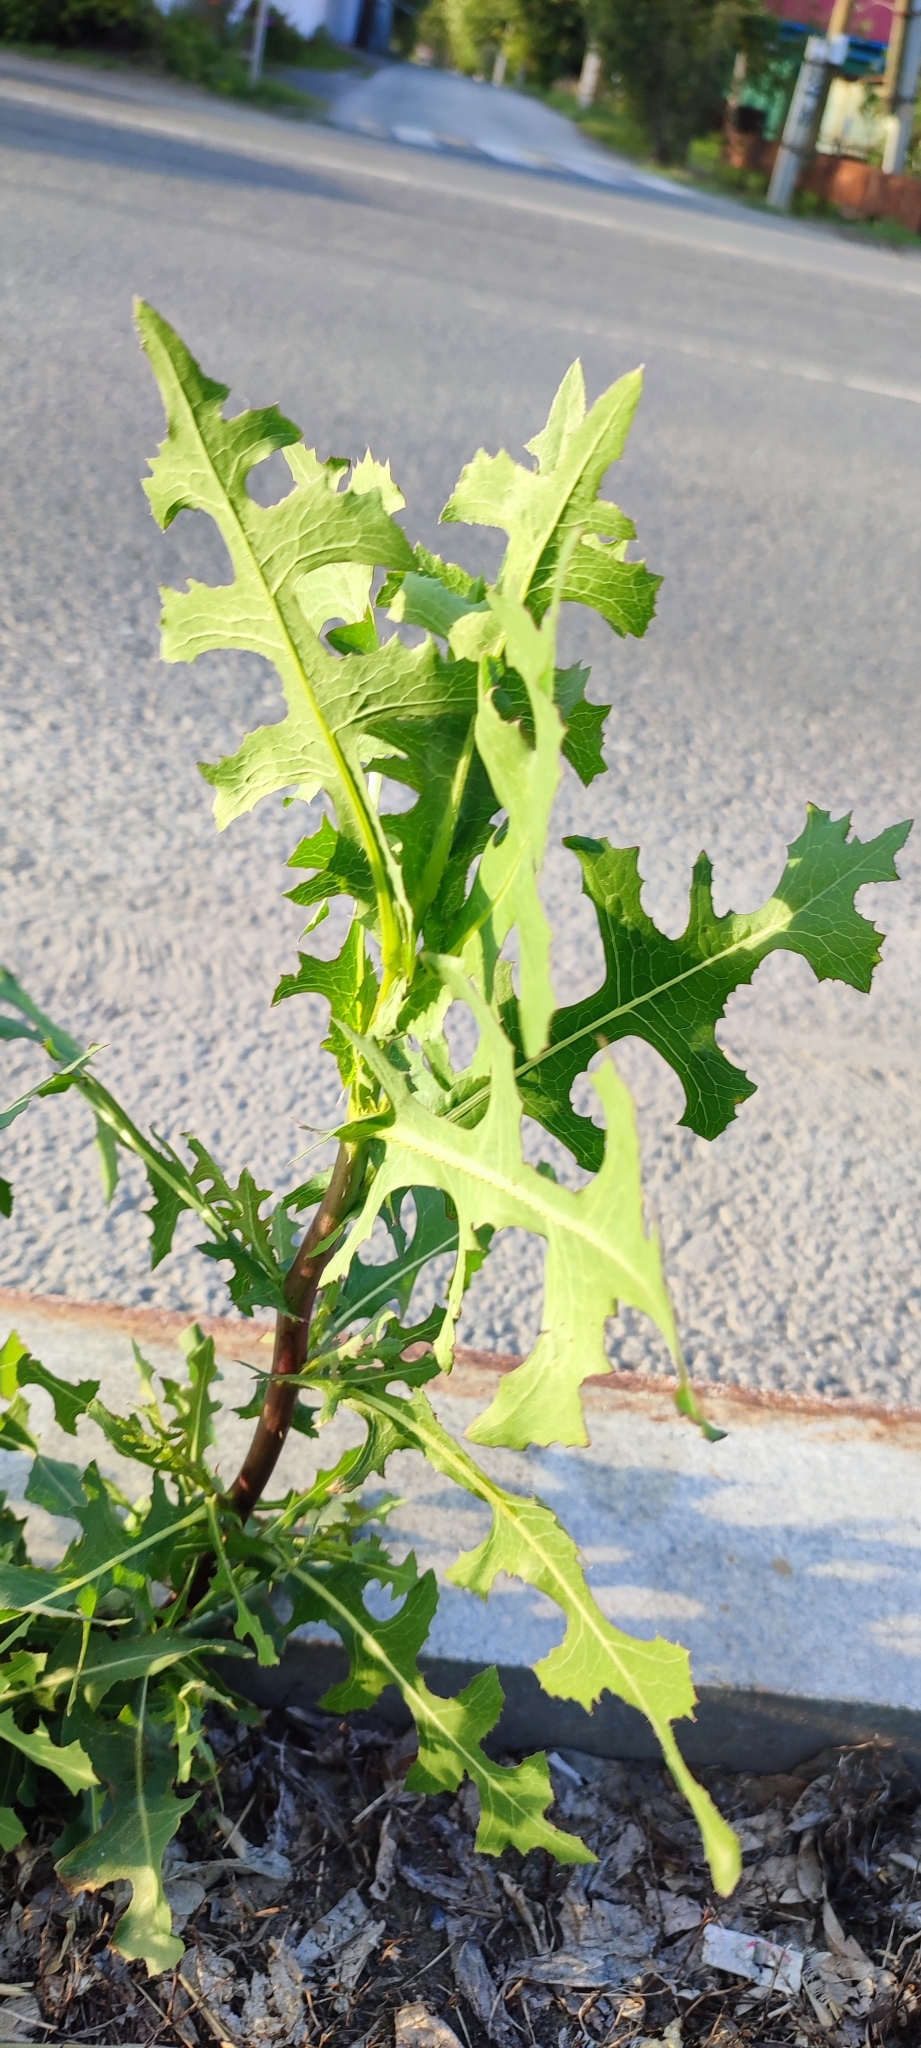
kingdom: Plantae
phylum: Tracheophyta
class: Magnoliopsida
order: Asterales
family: Asteraceae
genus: Lactuca
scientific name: Lactuca serriola
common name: Prickly lettuce
